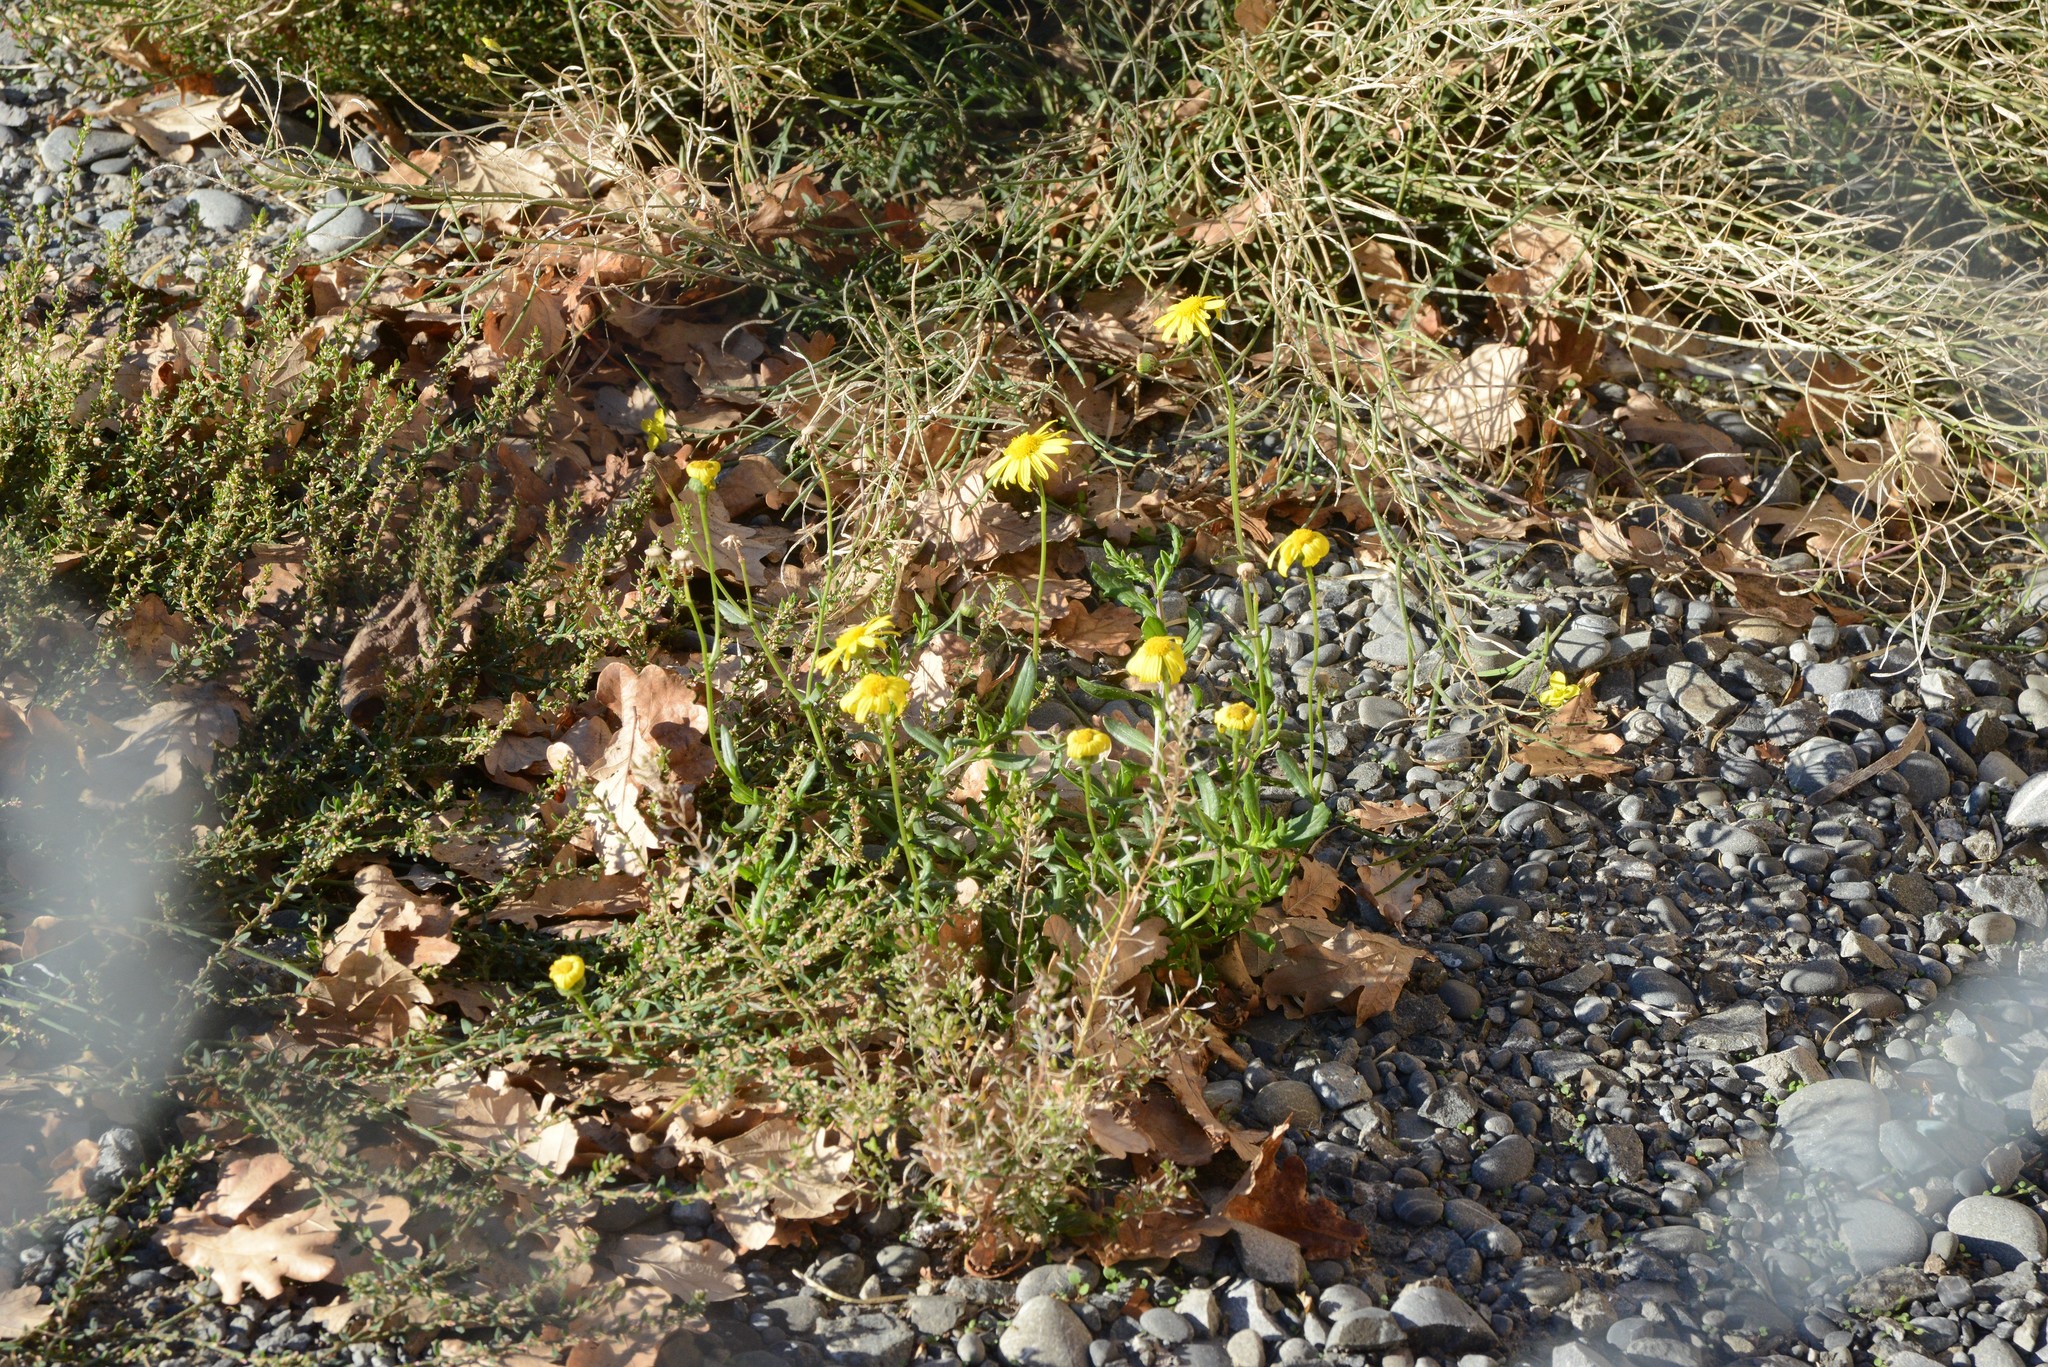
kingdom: Plantae
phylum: Tracheophyta
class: Magnoliopsida
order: Asterales
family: Asteraceae
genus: Senecio
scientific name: Senecio skirrhodon
